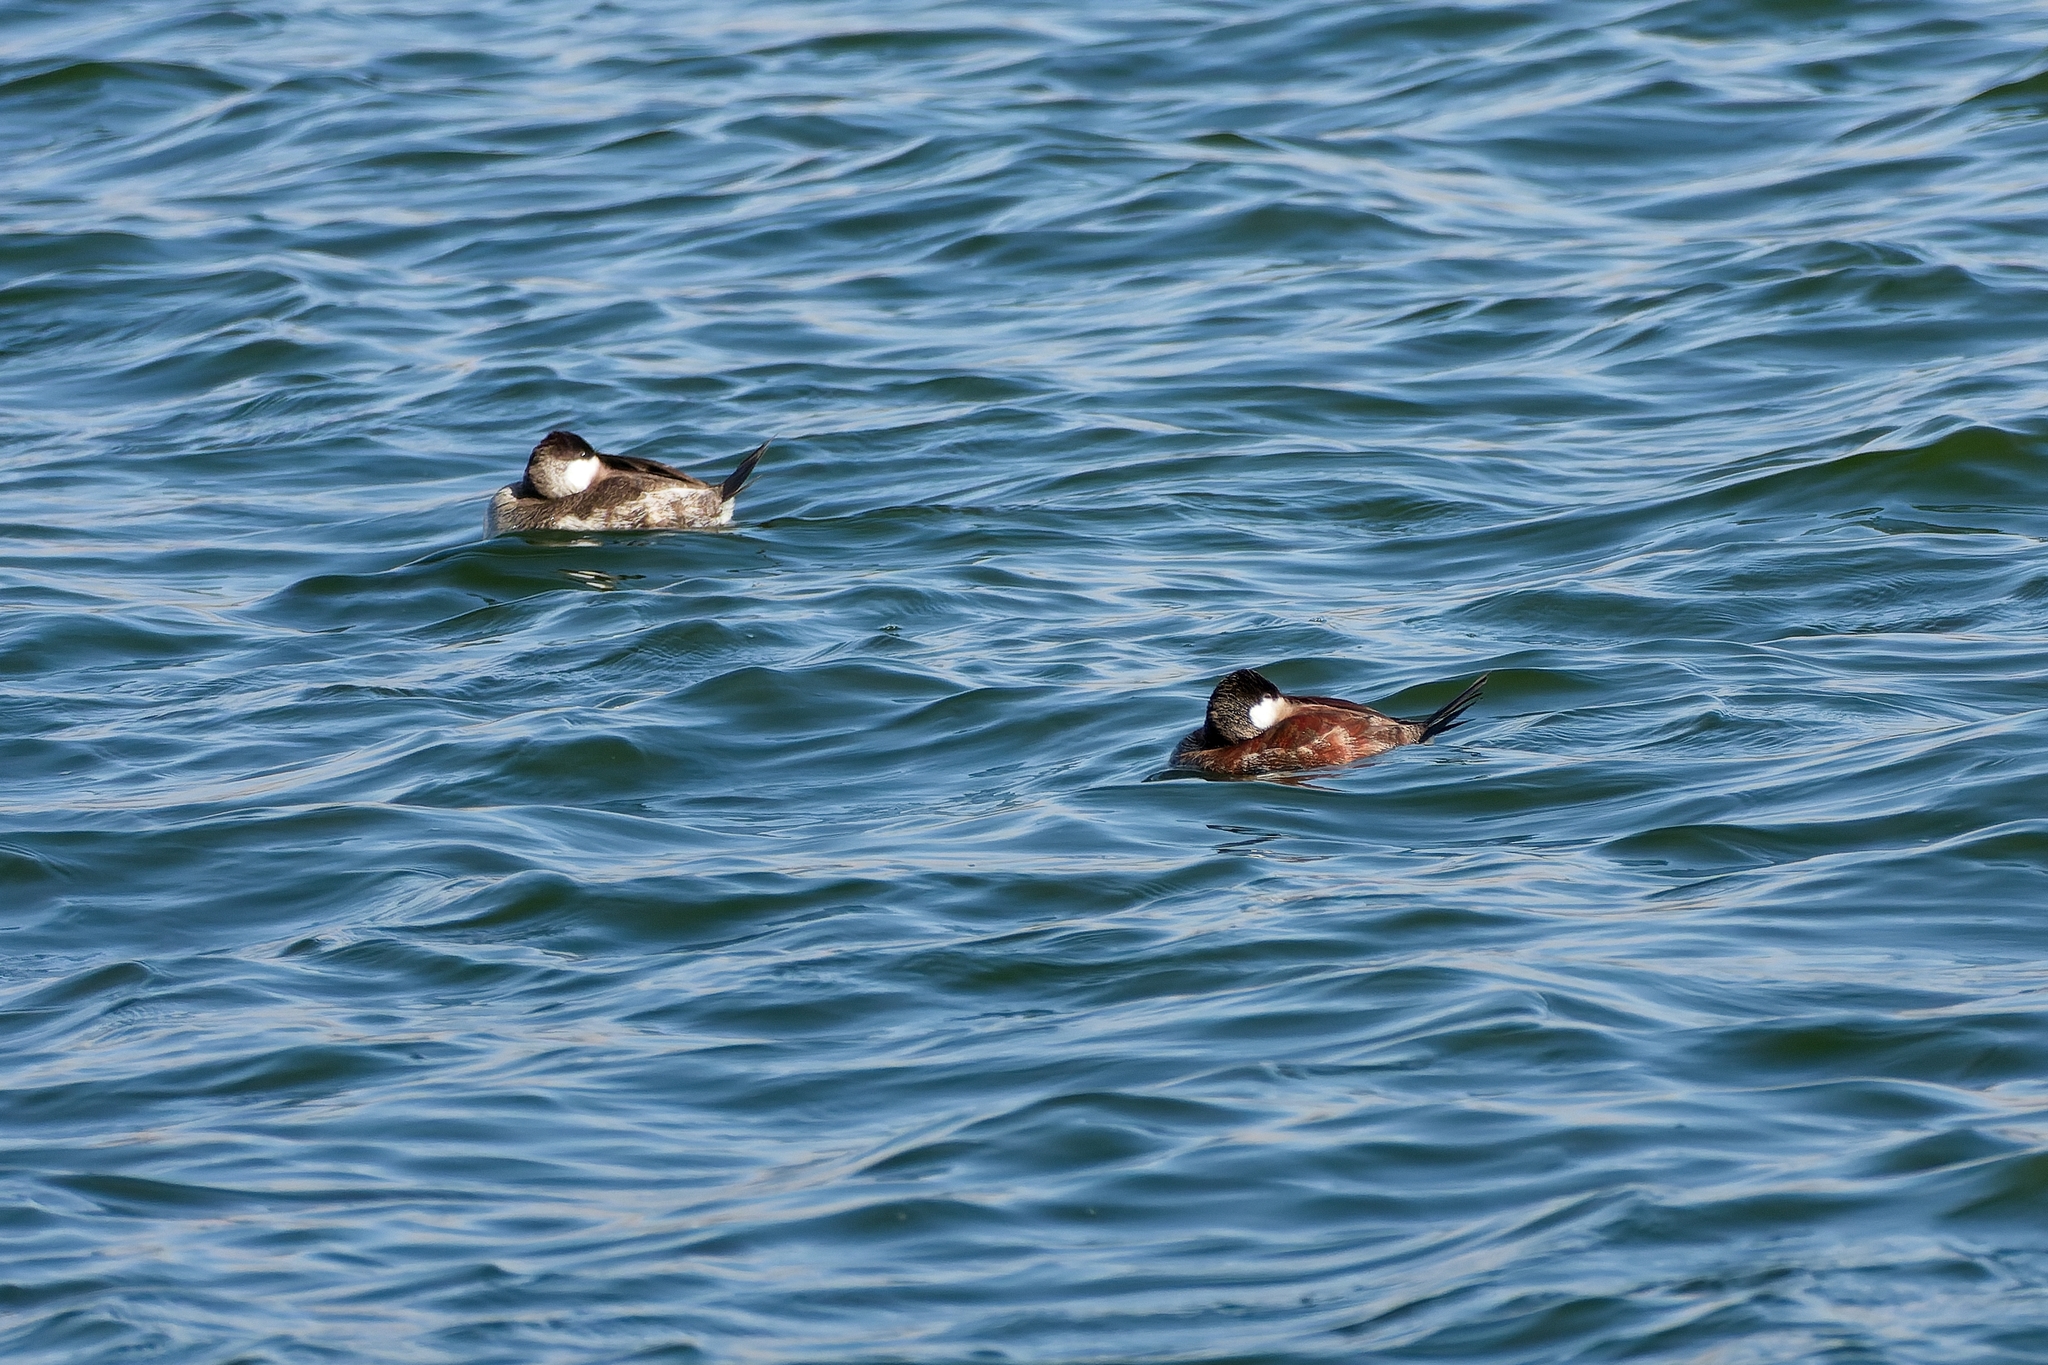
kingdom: Animalia
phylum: Chordata
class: Aves
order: Anseriformes
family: Anatidae
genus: Oxyura
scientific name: Oxyura jamaicensis
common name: Ruddy duck
